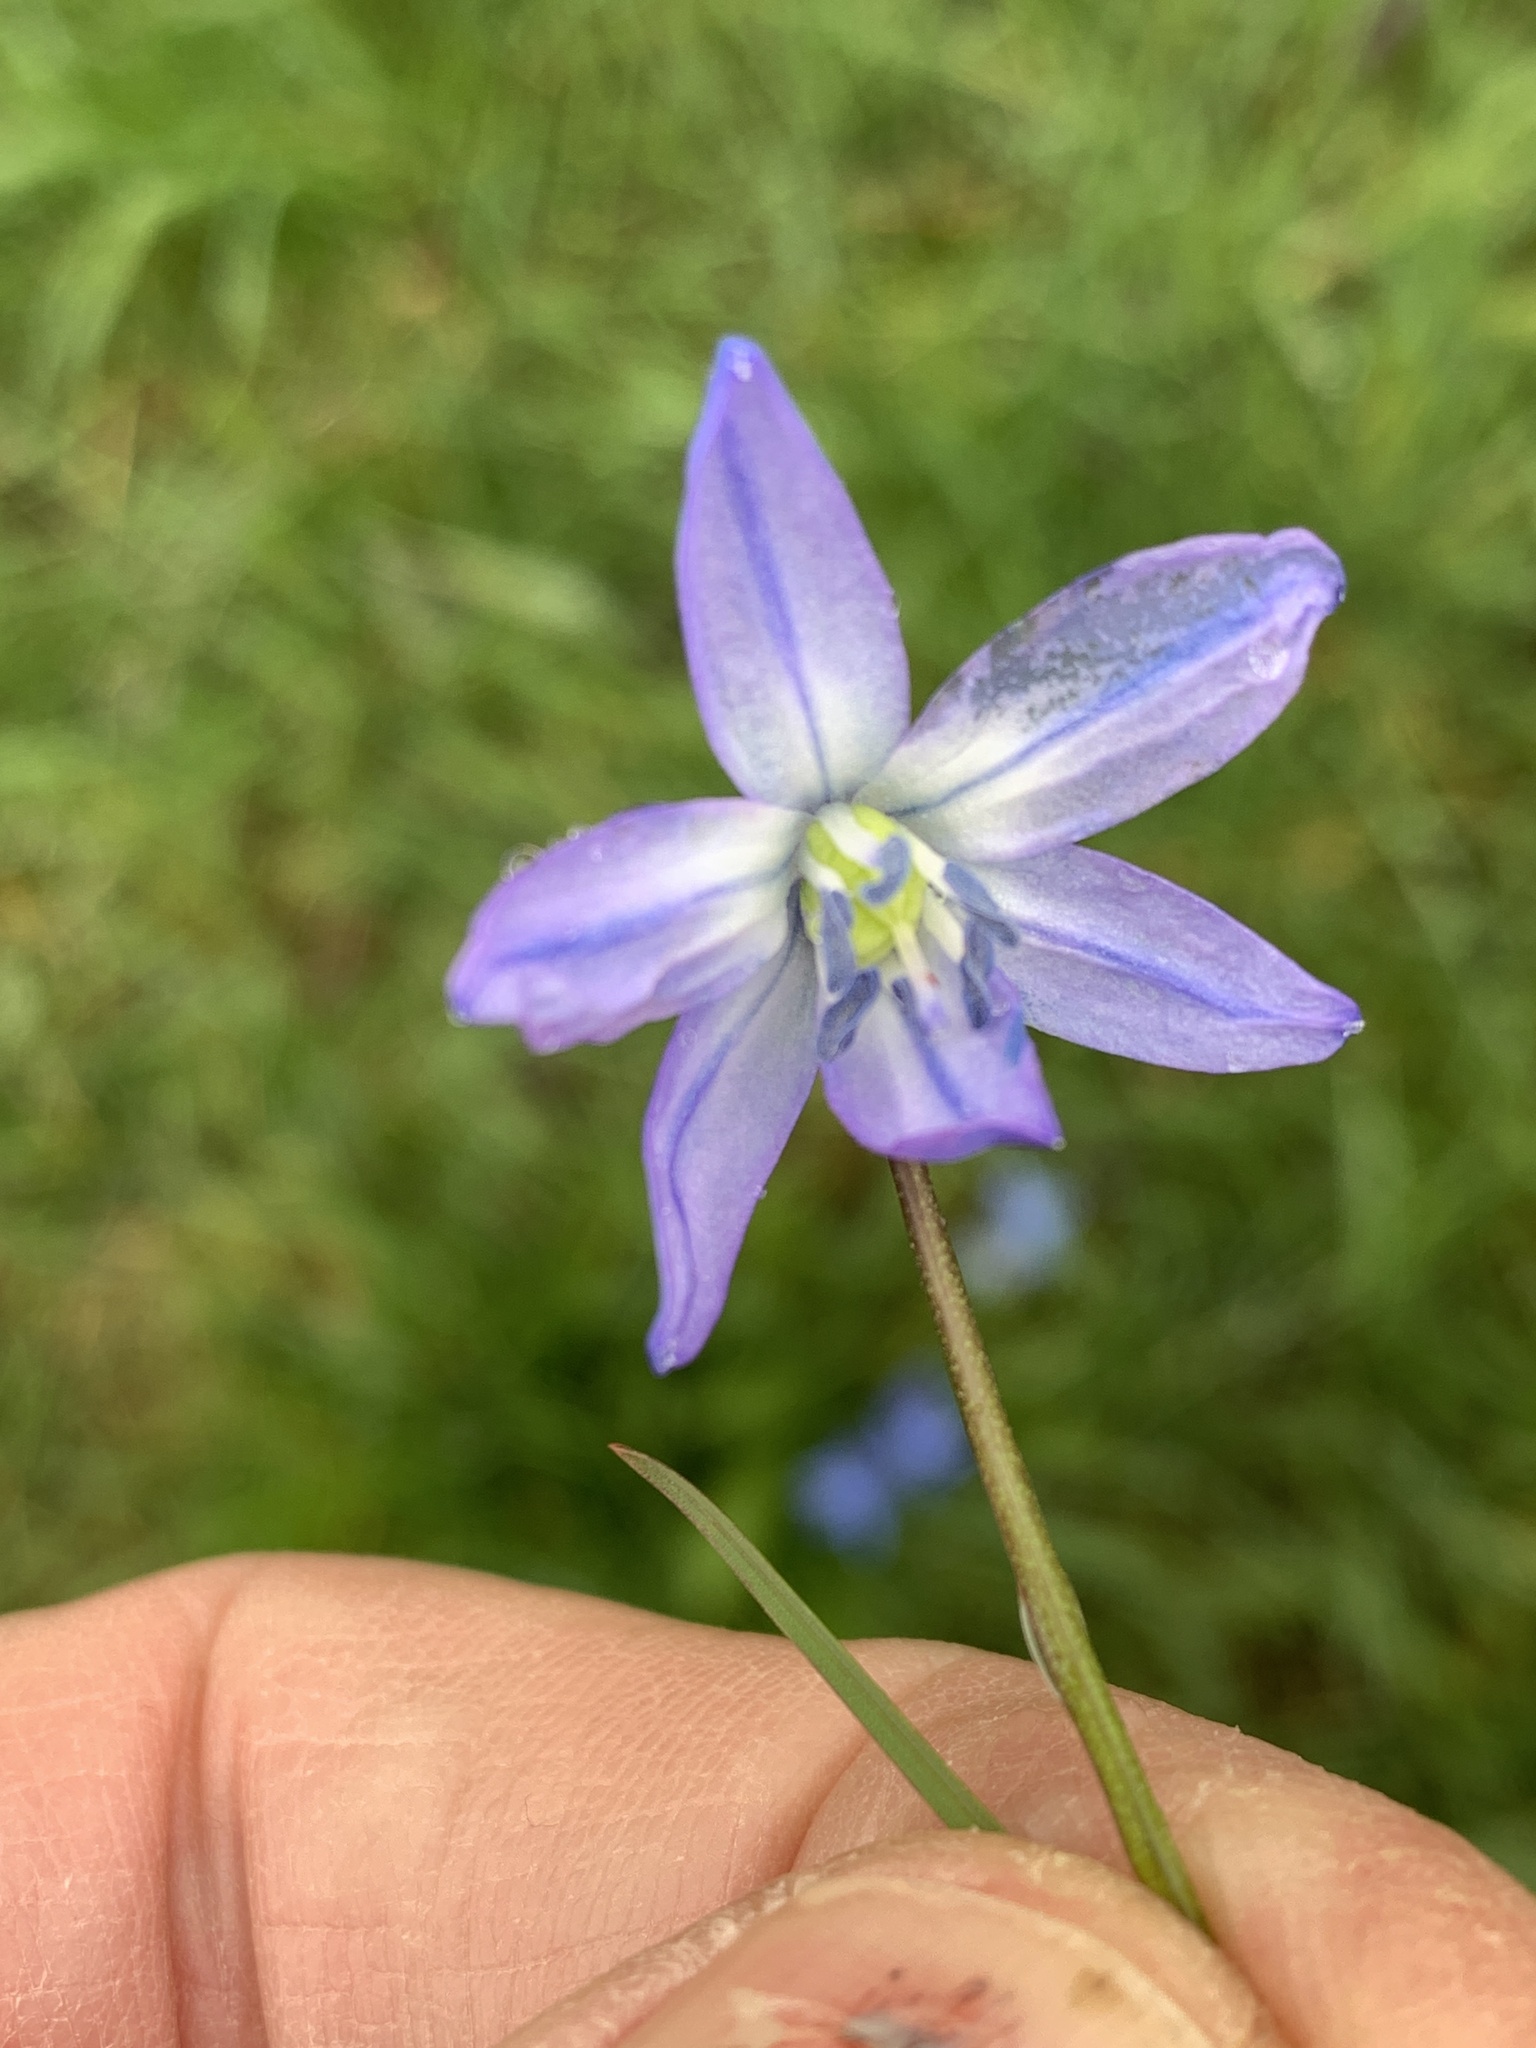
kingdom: Plantae
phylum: Tracheophyta
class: Liliopsida
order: Asparagales
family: Asparagaceae
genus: Scilla
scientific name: Scilla siberica
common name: Siberian squill
